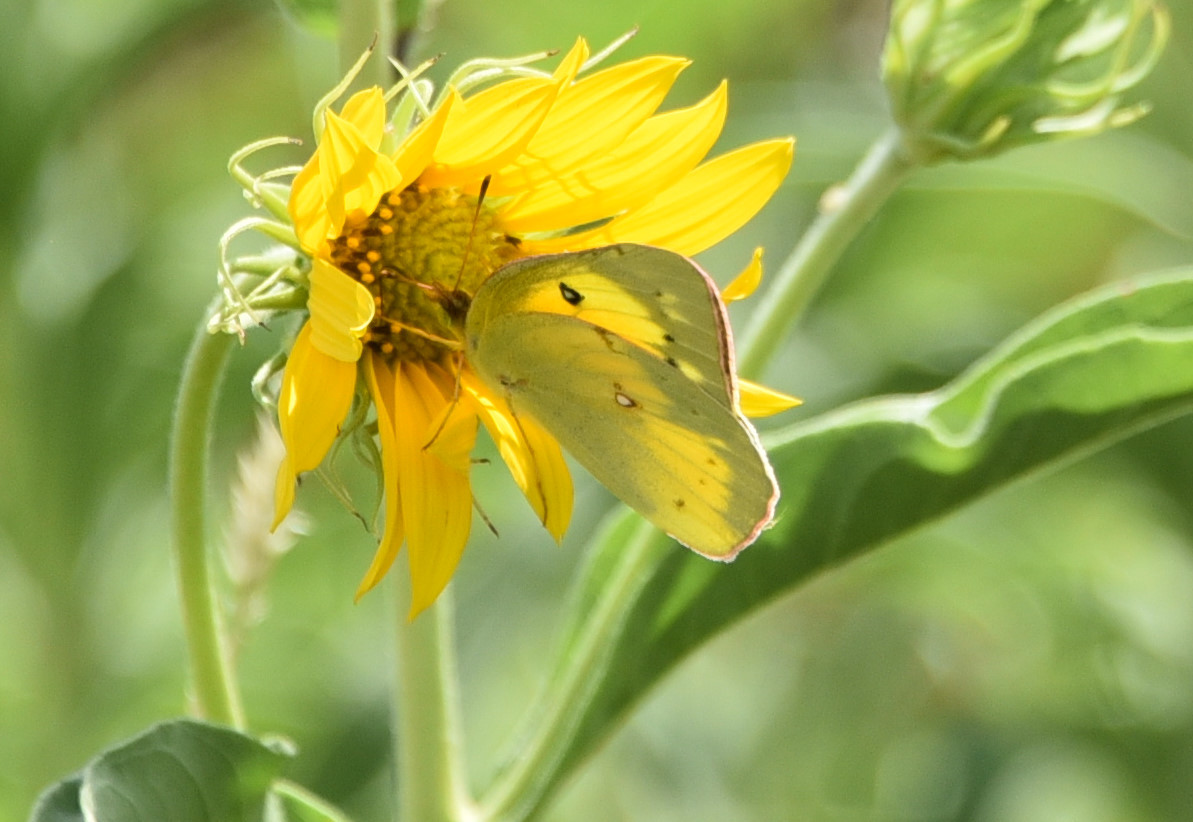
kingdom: Animalia
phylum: Arthropoda
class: Insecta
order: Lepidoptera
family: Pieridae
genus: Colias
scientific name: Colias eurytheme
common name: Alfalfa butterfly
